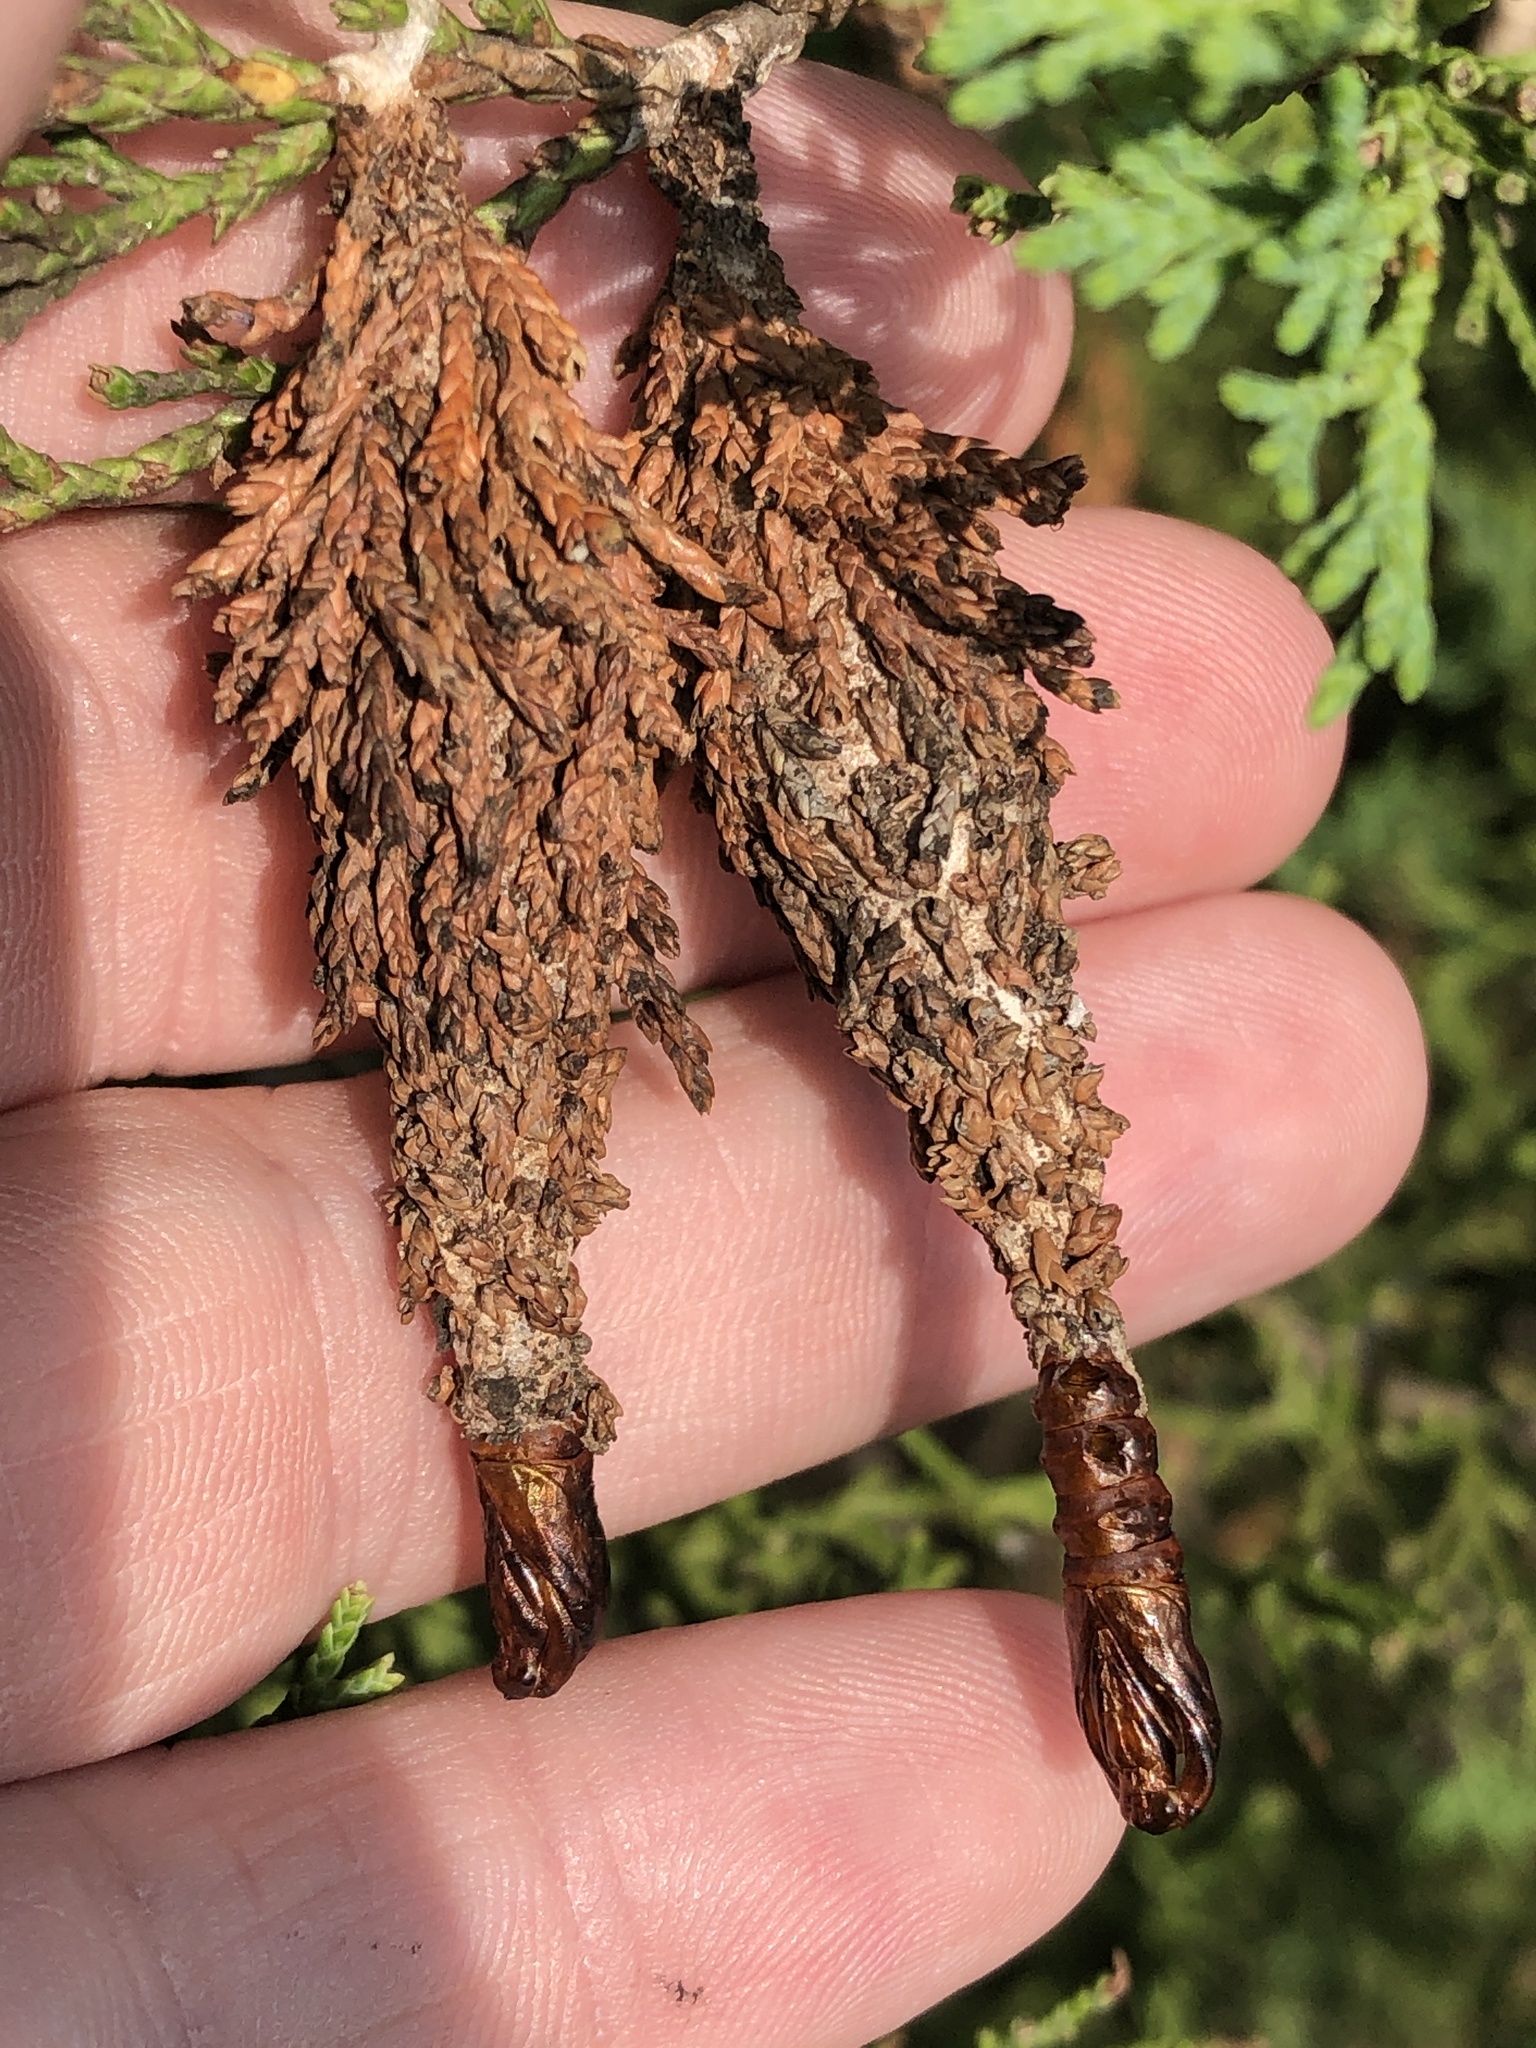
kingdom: Animalia
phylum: Arthropoda
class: Insecta
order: Lepidoptera
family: Psychidae
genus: Thyridopteryx
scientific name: Thyridopteryx ephemeraeformis
